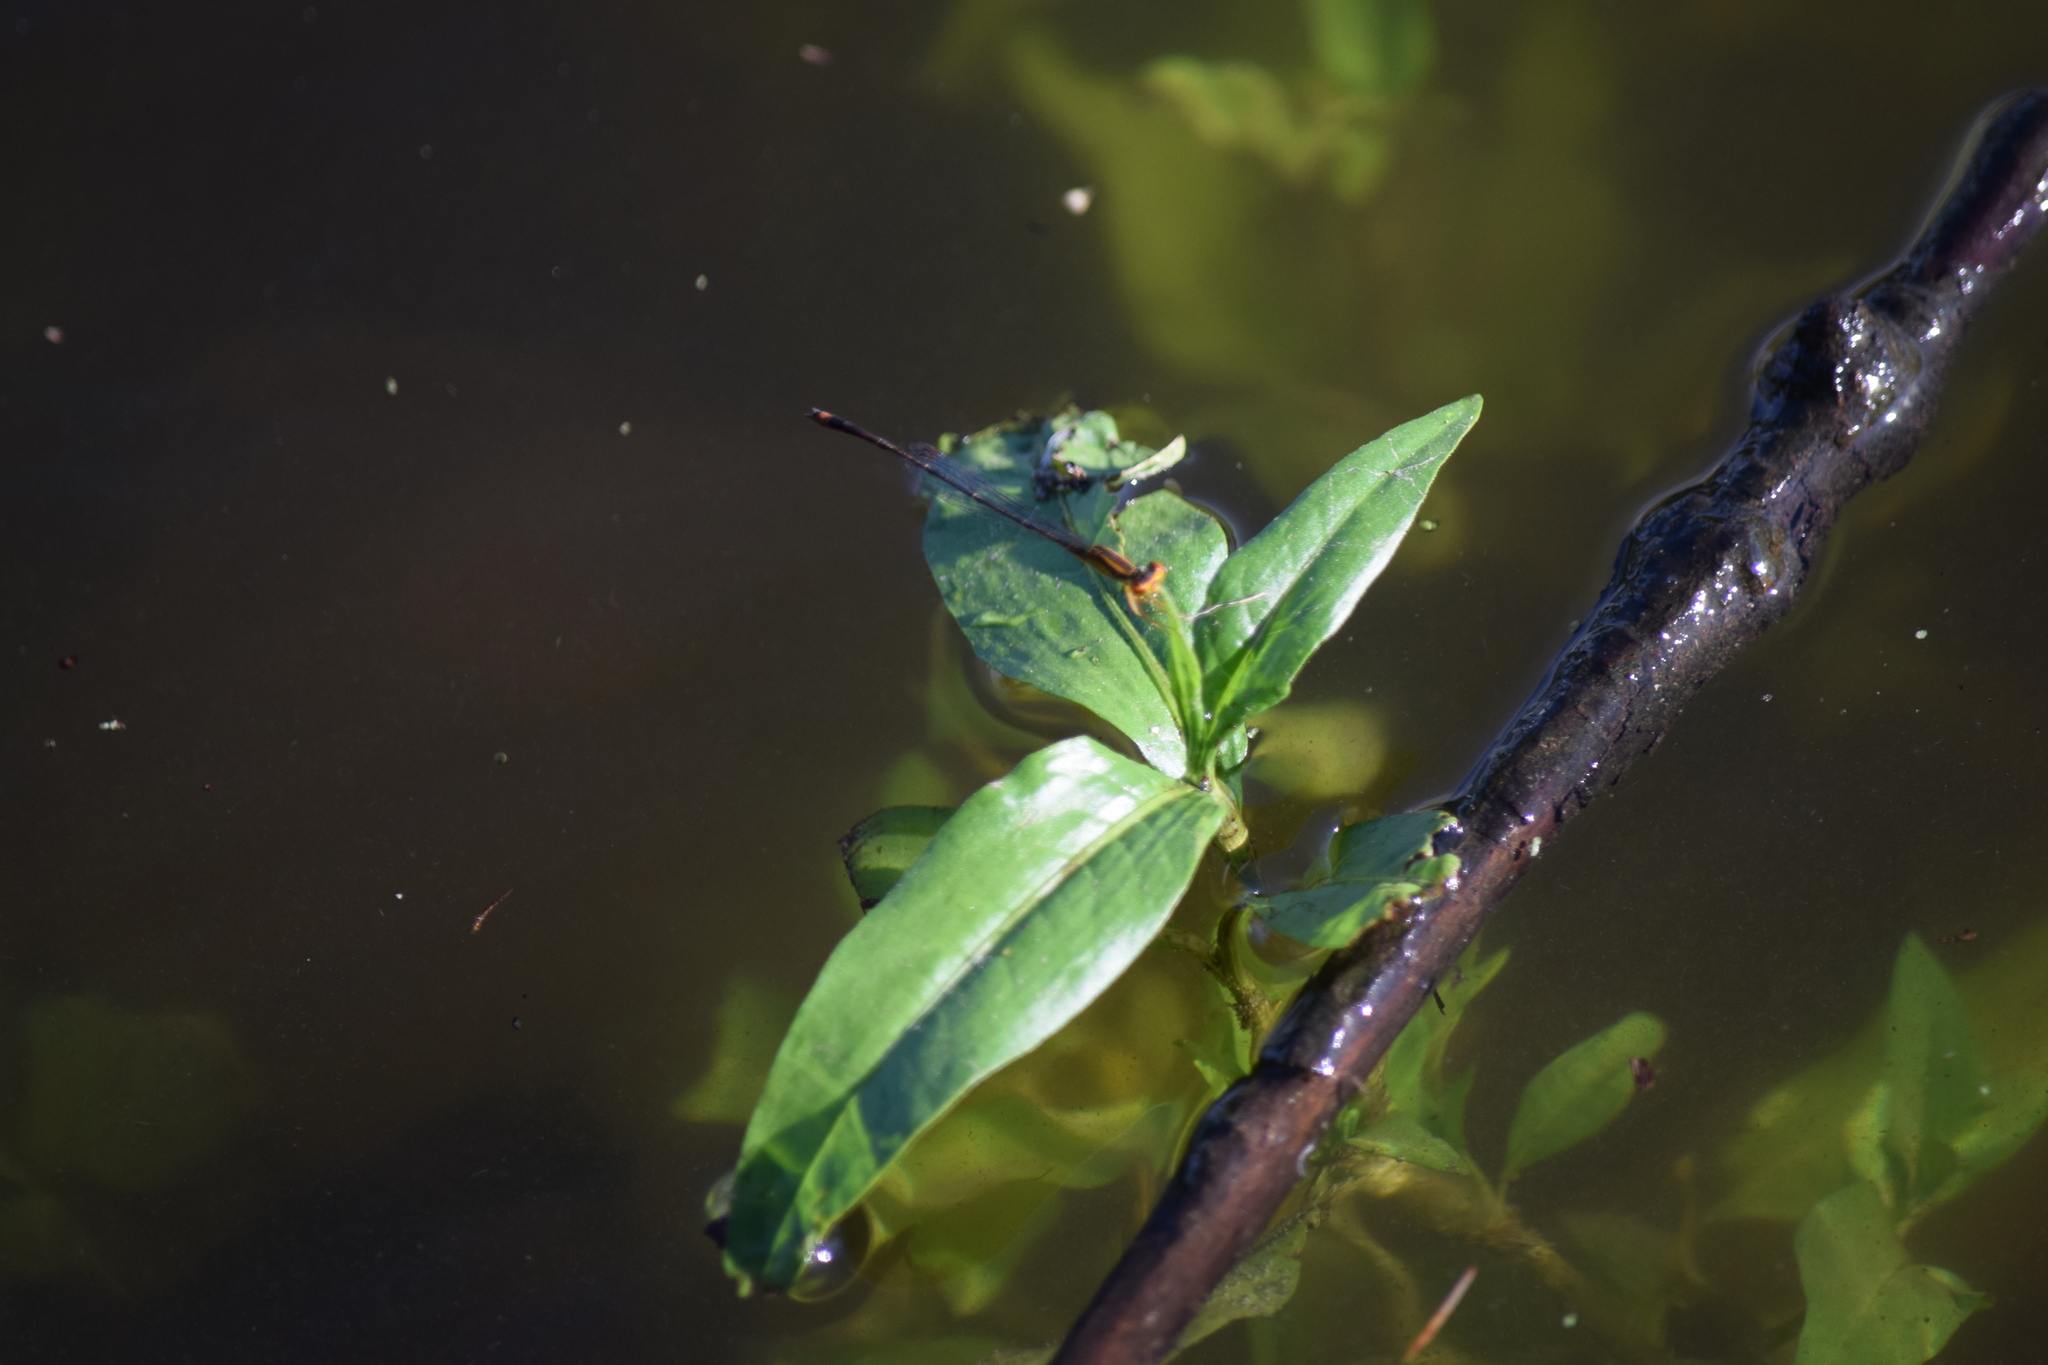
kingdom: Animalia
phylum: Arthropoda
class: Insecta
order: Odonata
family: Coenagrionidae
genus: Enallagma
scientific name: Enallagma signatum
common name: Orange bluet
